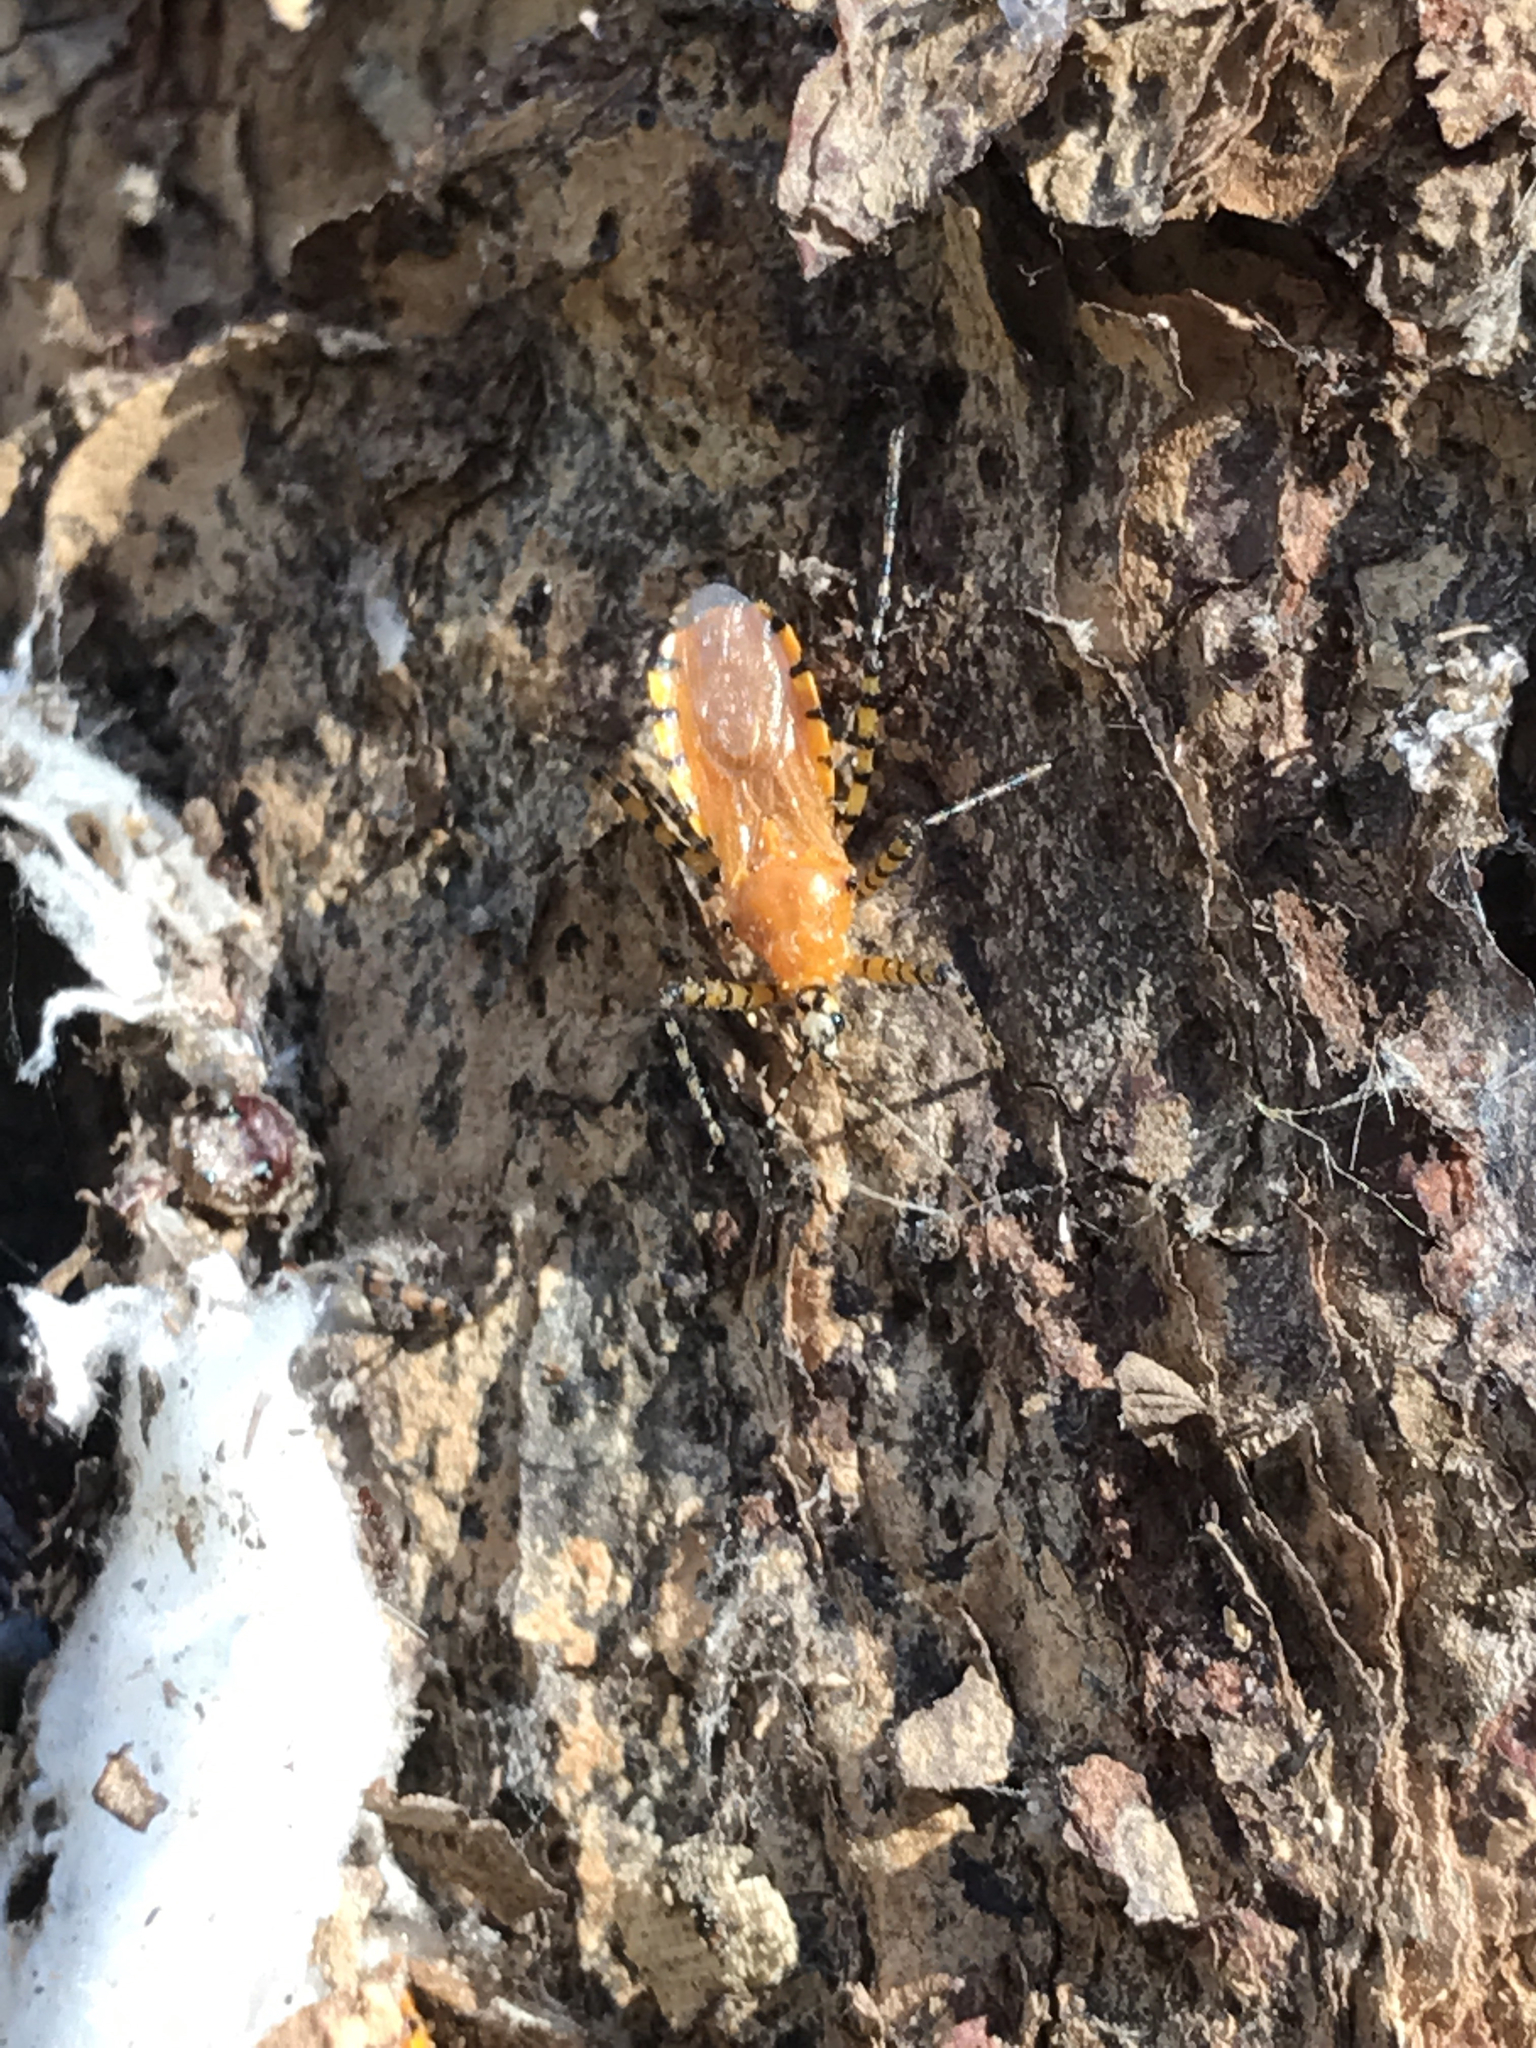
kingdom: Animalia
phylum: Arthropoda
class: Insecta
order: Hemiptera
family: Reduviidae
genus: Pselliopus
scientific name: Pselliopus barberi
